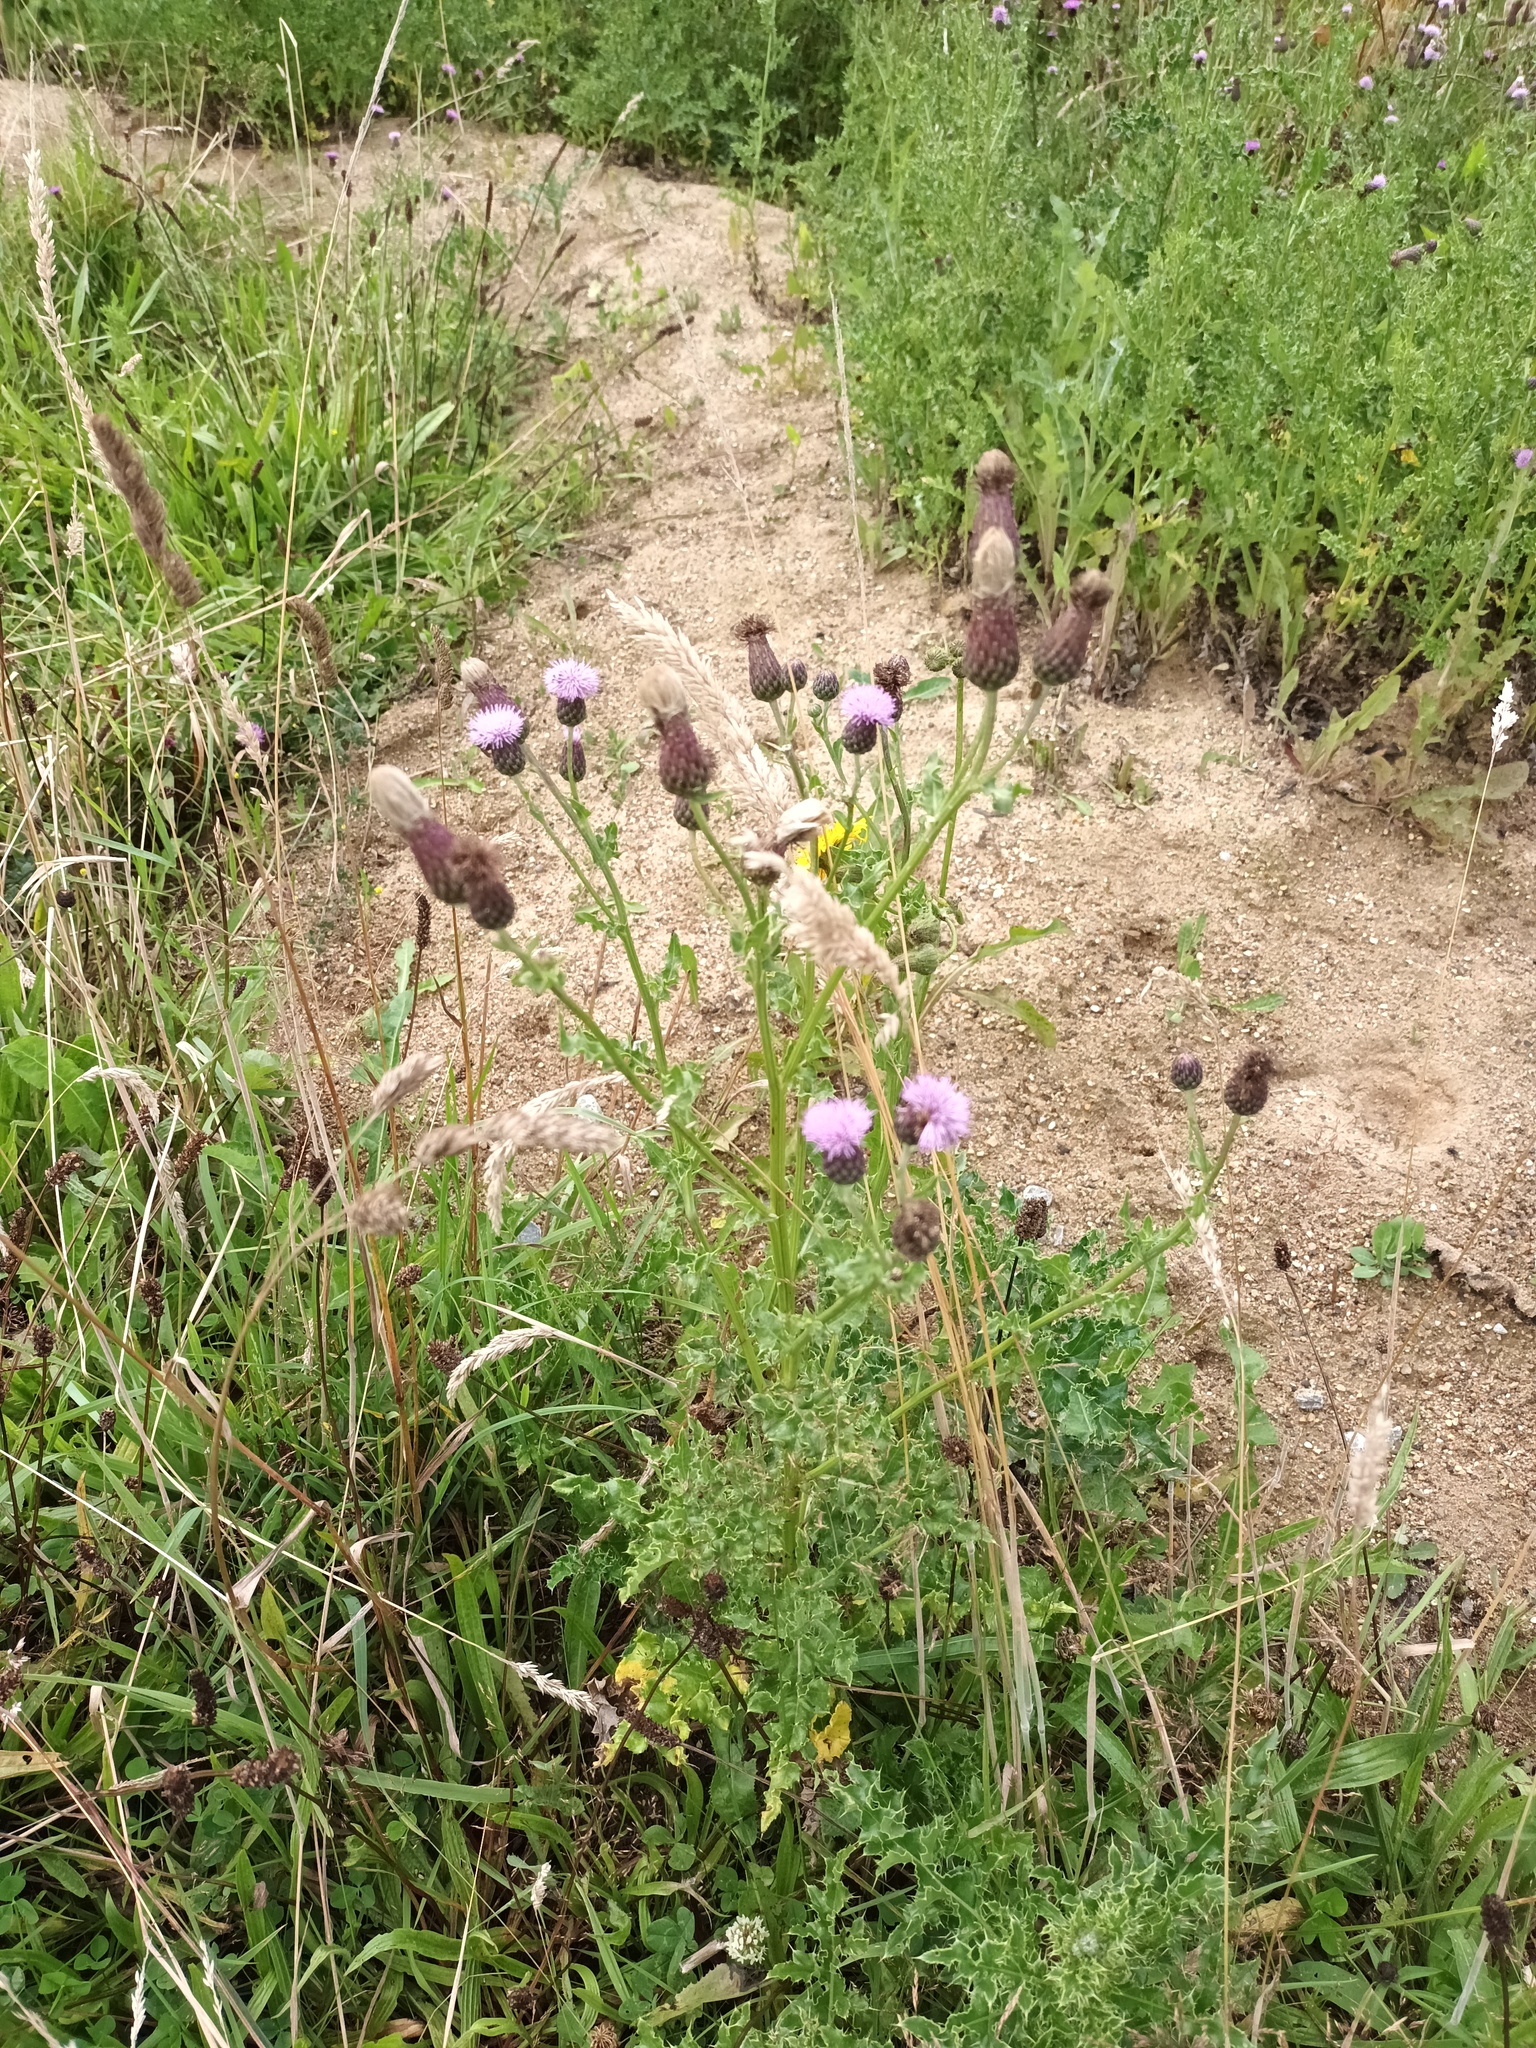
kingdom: Plantae
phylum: Tracheophyta
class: Magnoliopsida
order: Asterales
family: Asteraceae
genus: Cirsium
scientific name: Cirsium arvense
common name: Creeping thistle
